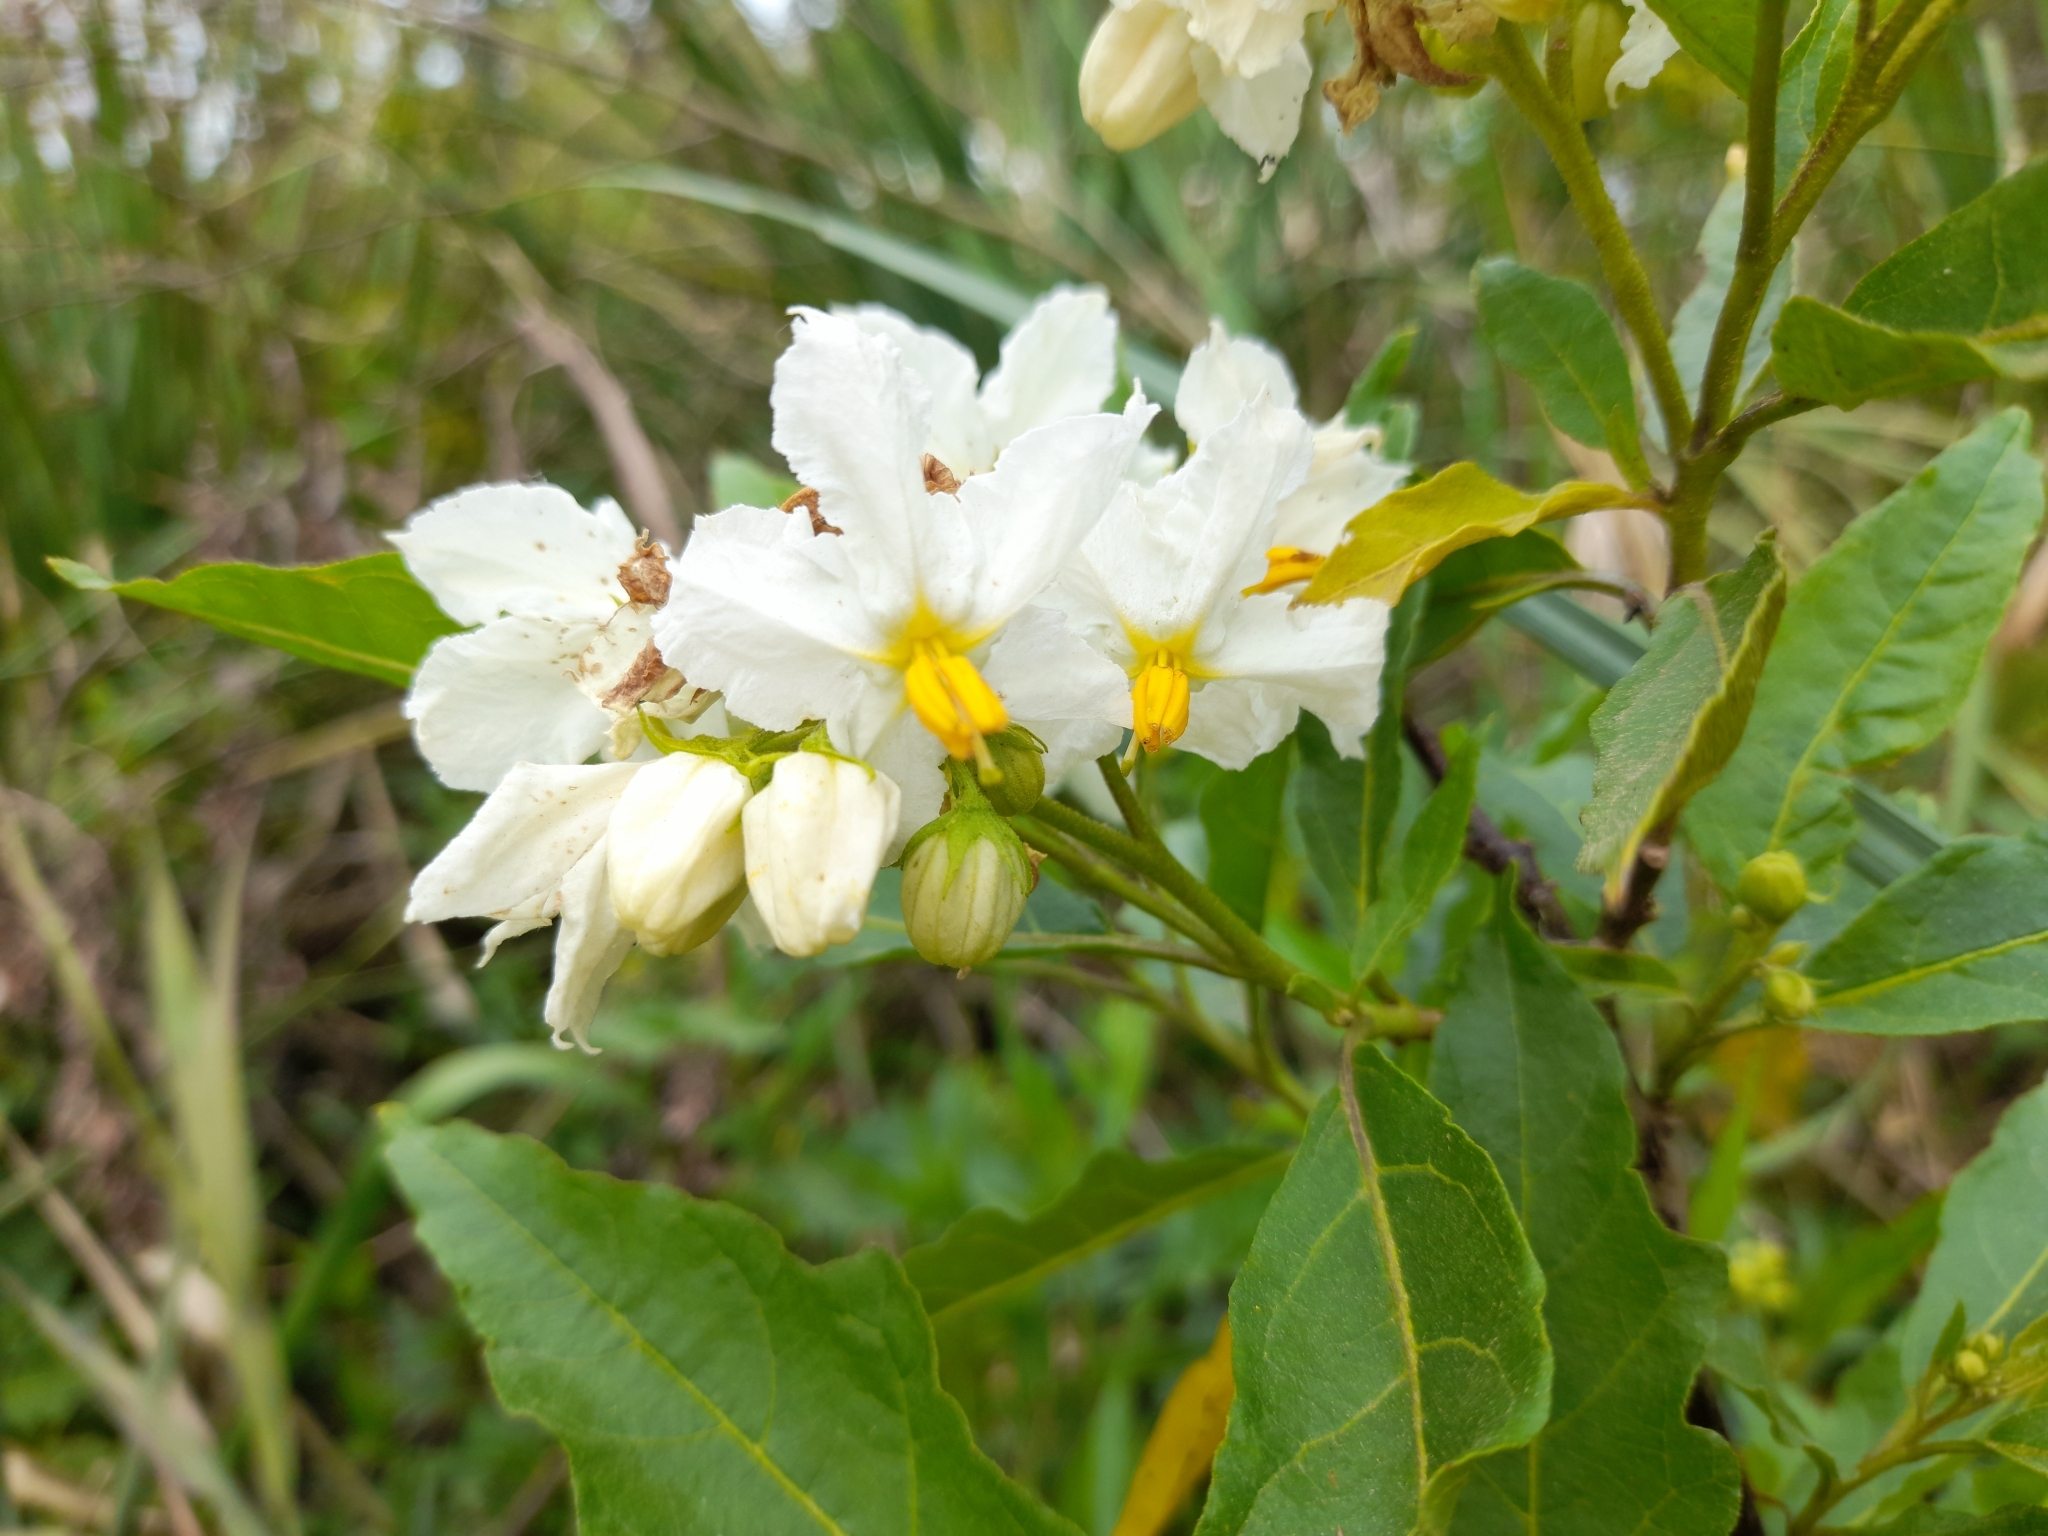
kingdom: Plantae
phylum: Tracheophyta
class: Magnoliopsida
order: Solanales
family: Solanaceae
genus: Solanum
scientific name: Solanum bonariense
